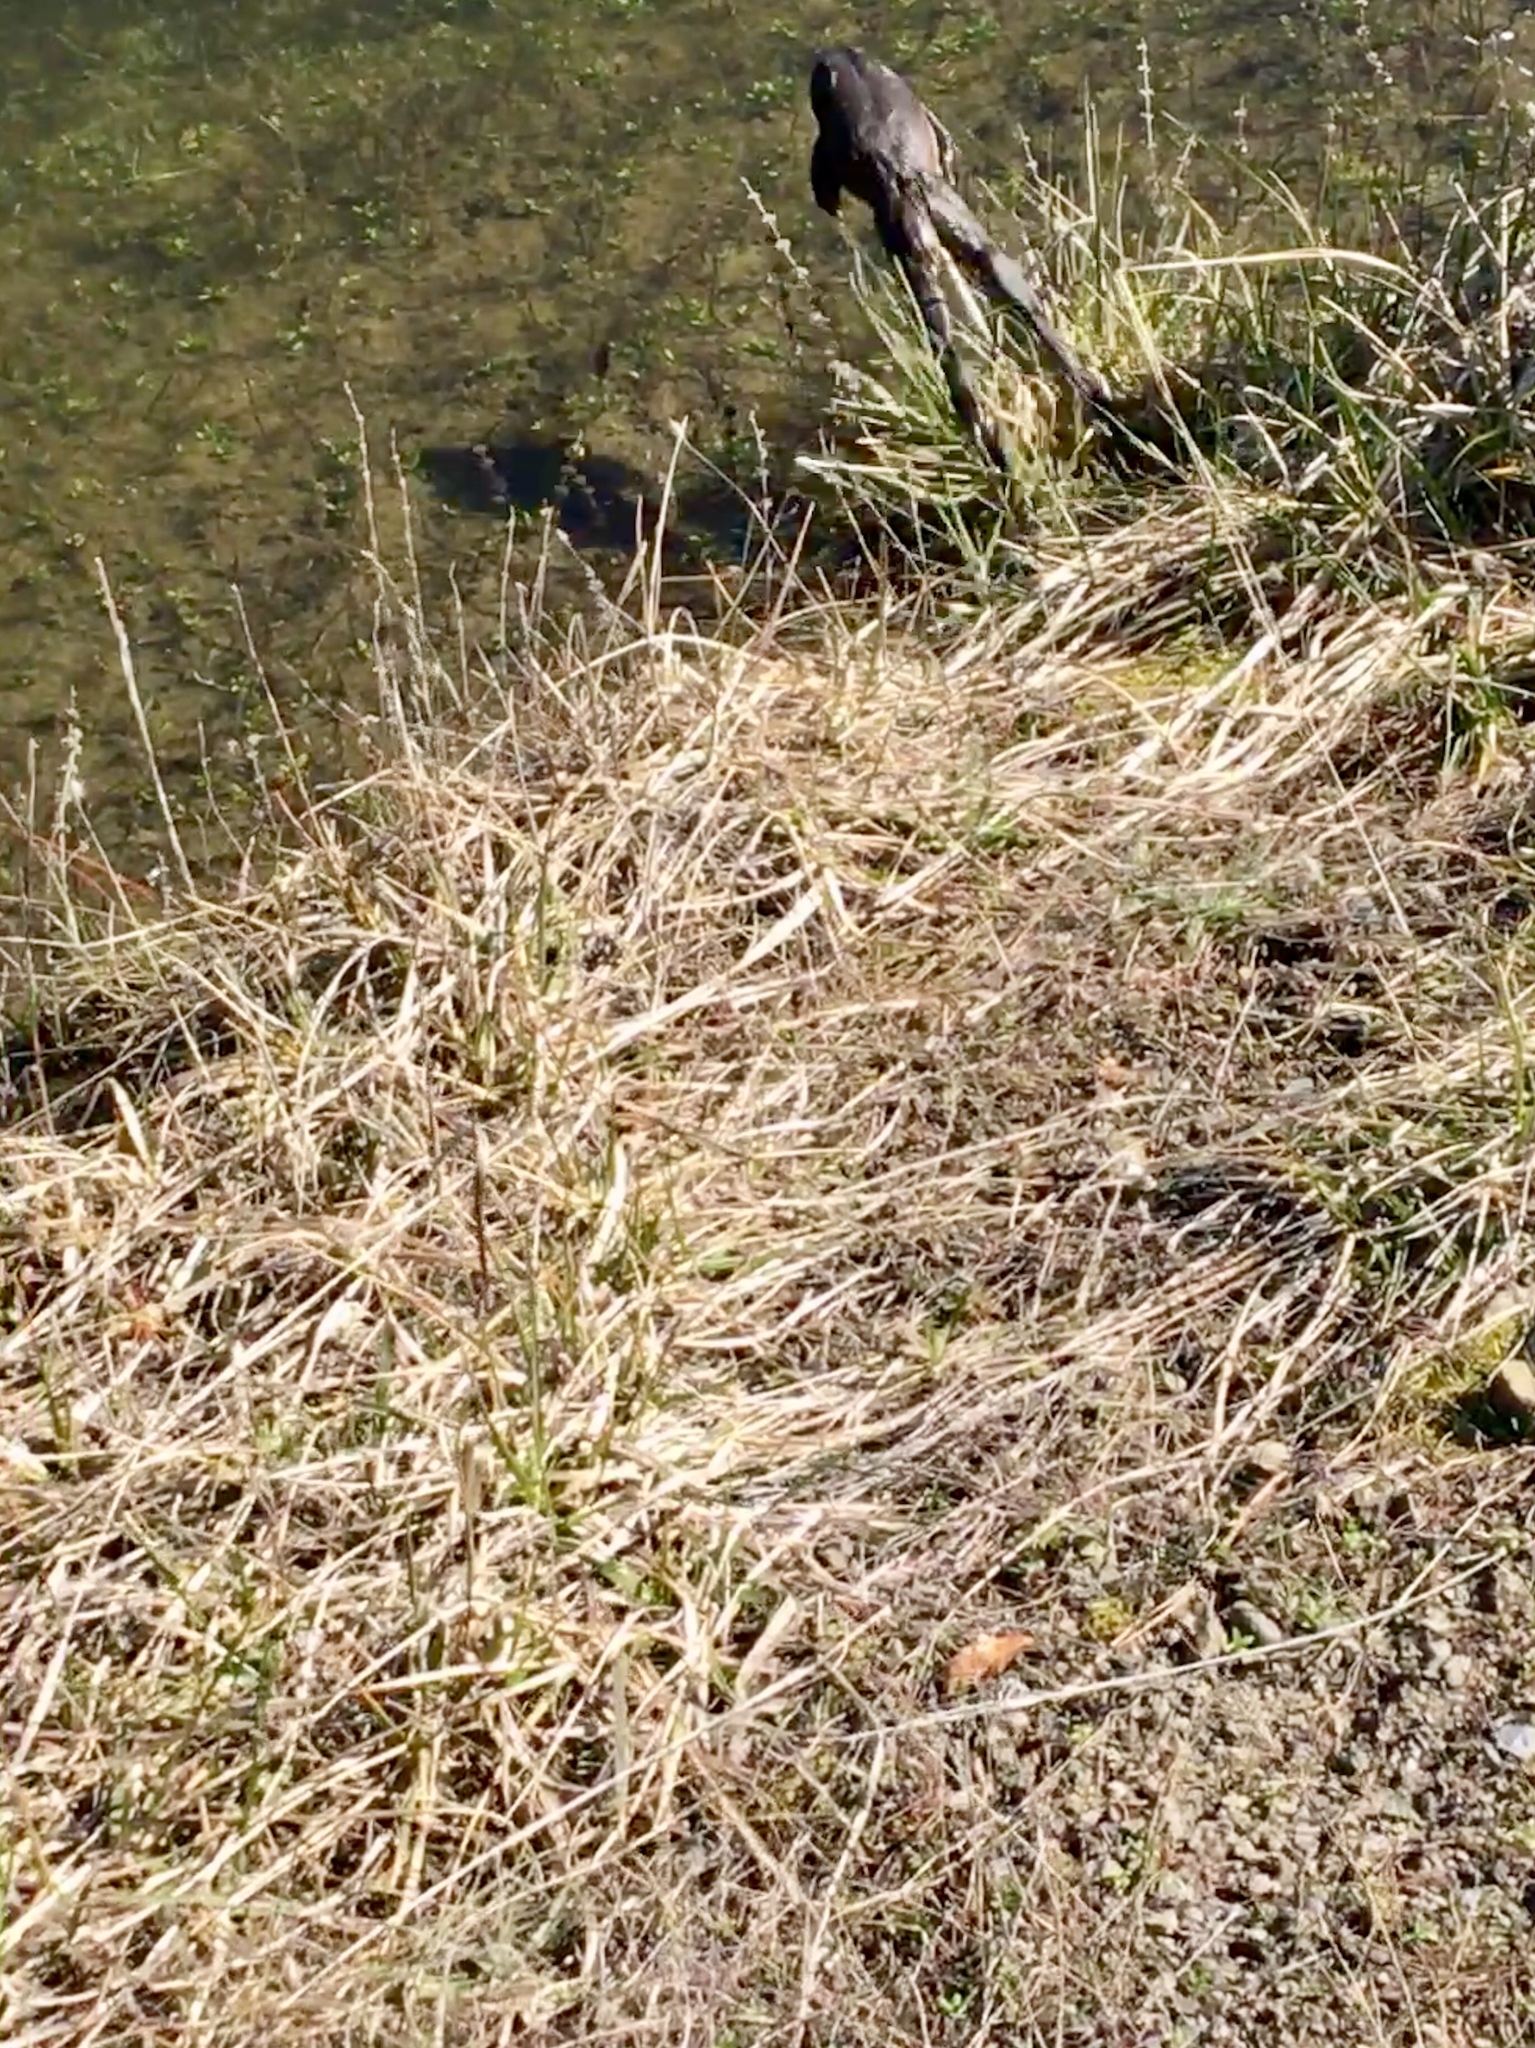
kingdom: Animalia
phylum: Chordata
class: Amphibia
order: Anura
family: Ranidae
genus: Lithobates
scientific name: Lithobates catesbeianus
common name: American bullfrog
